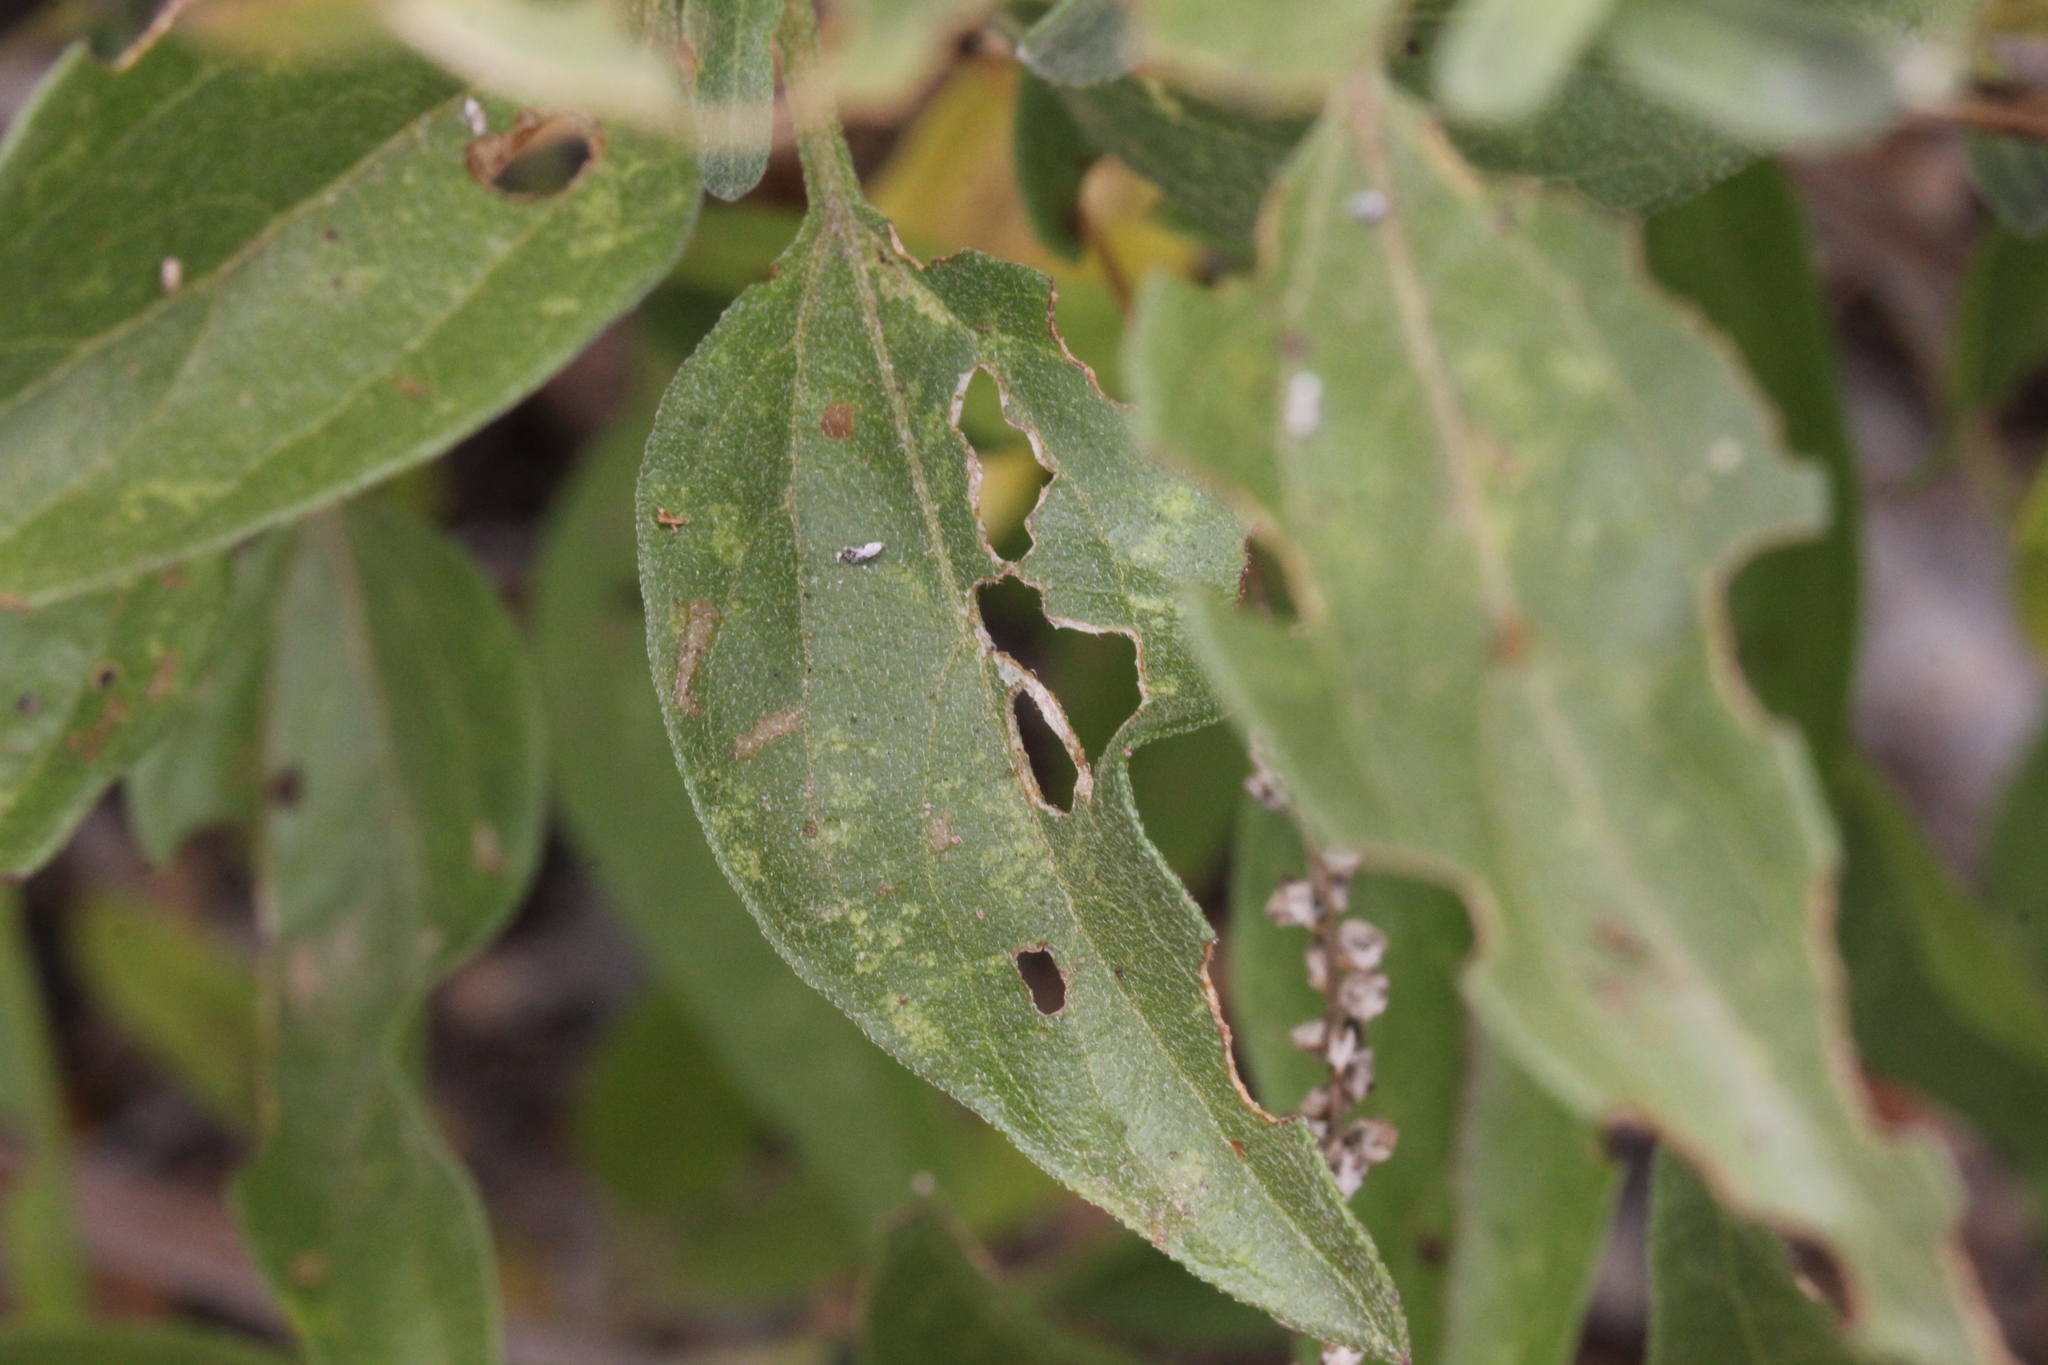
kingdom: Plantae
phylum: Tracheophyta
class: Magnoliopsida
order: Asterales
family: Asteraceae
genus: Encelia
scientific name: Encelia californica
